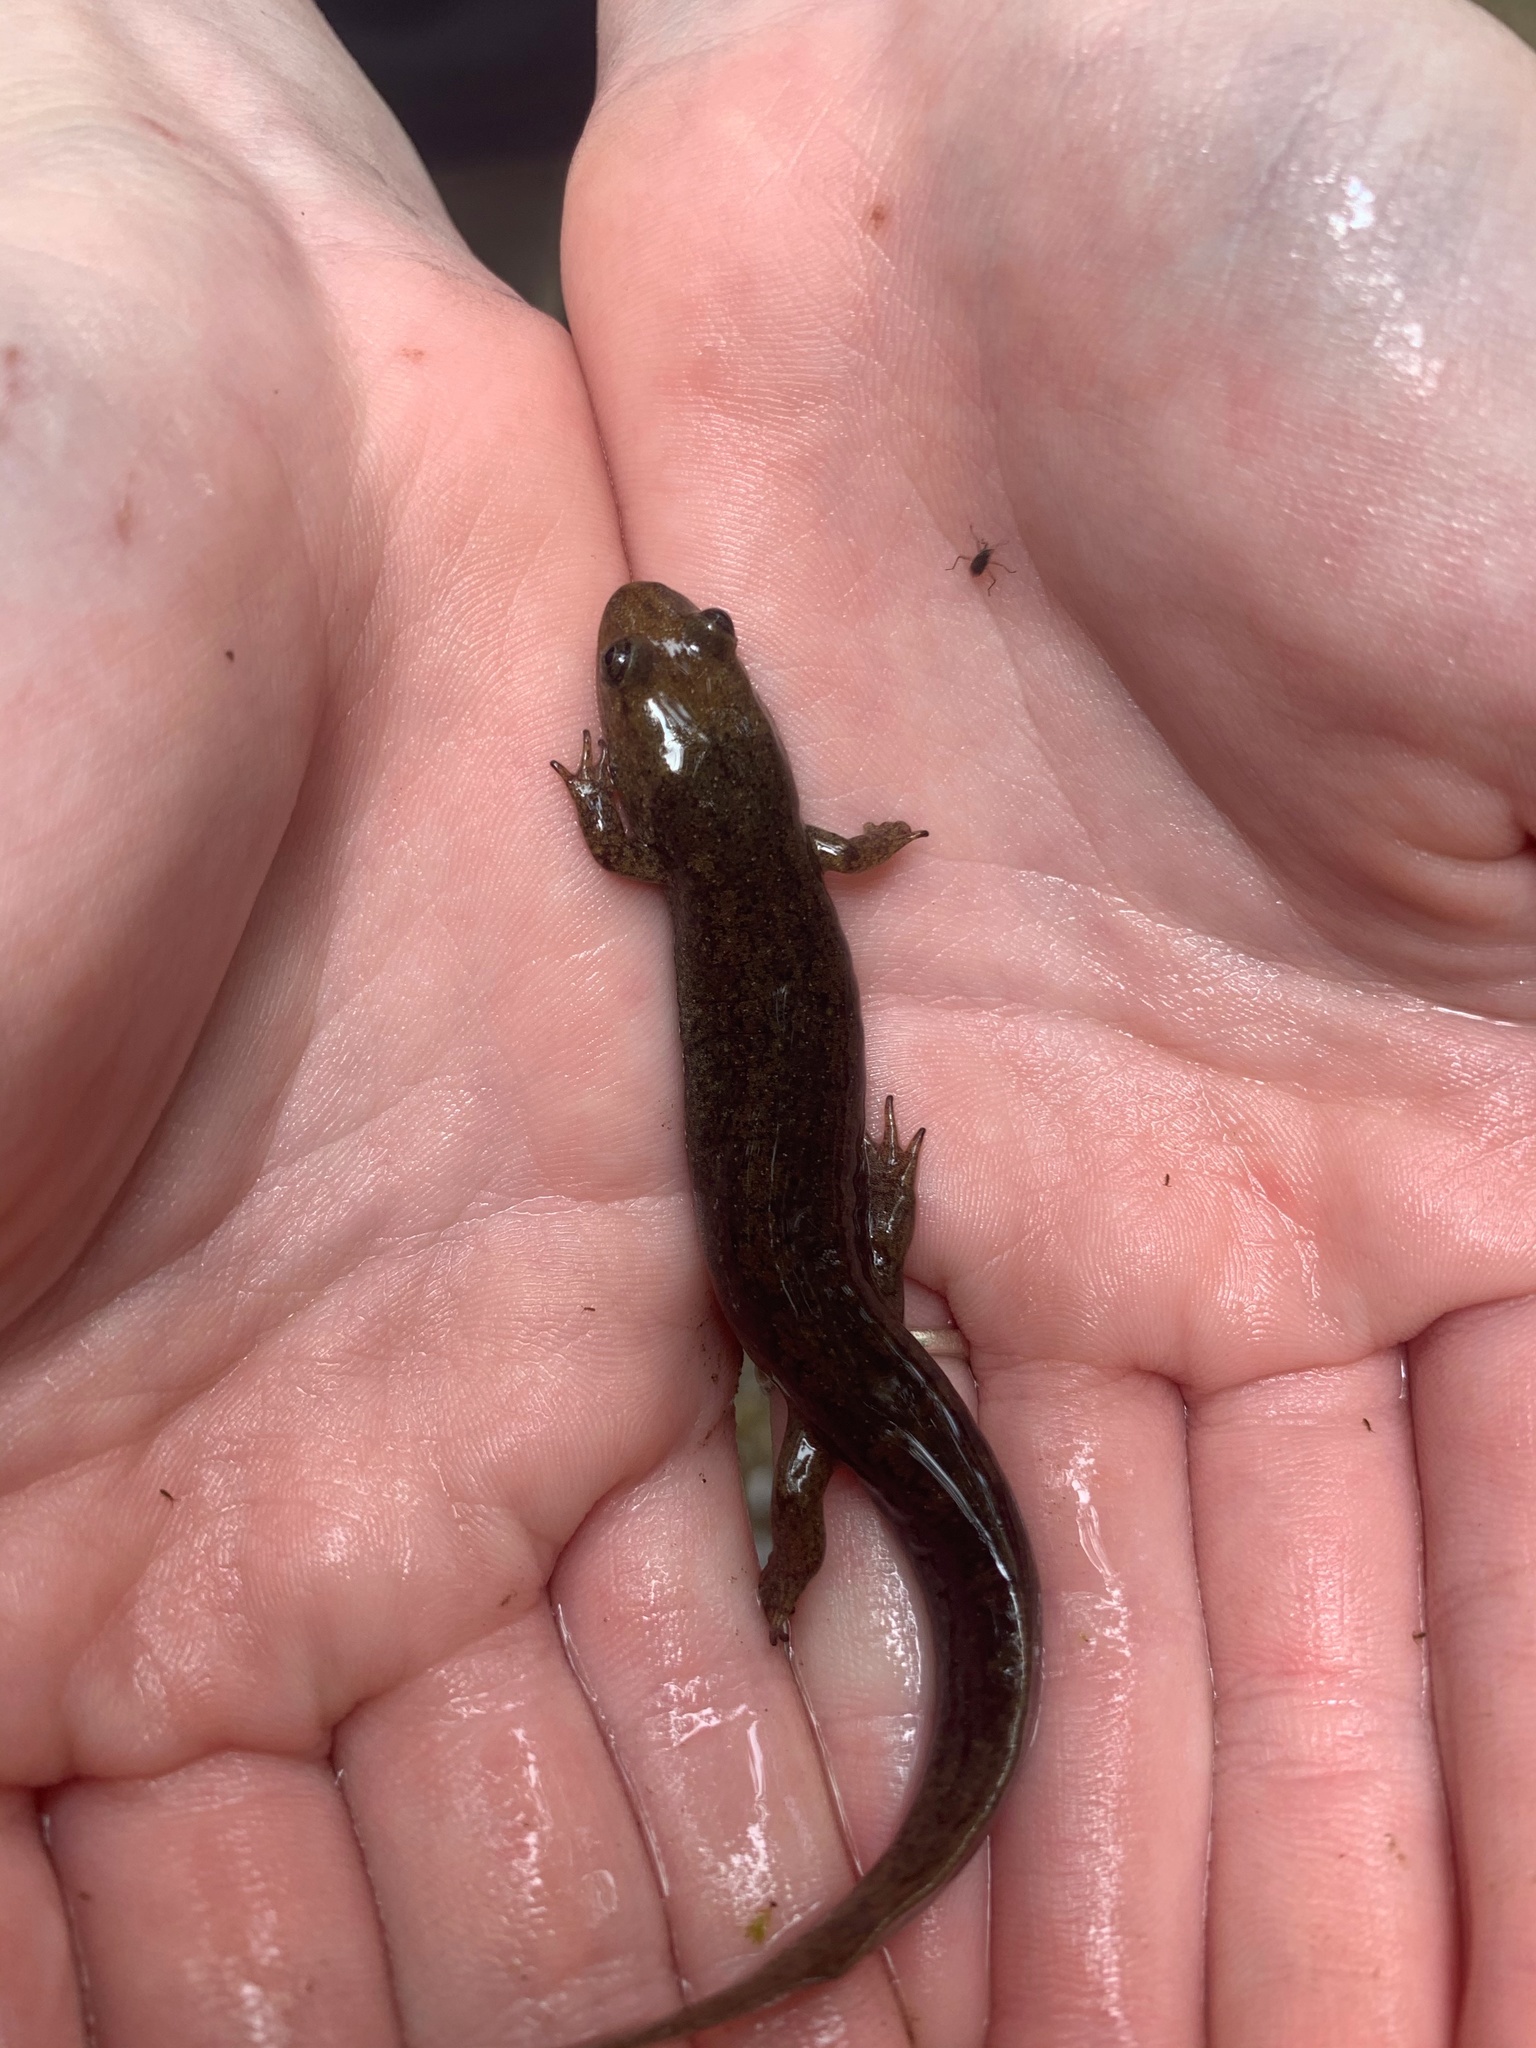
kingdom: Animalia
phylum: Chordata
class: Amphibia
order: Caudata
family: Plethodontidae
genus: Desmognathus
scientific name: Desmognathus
